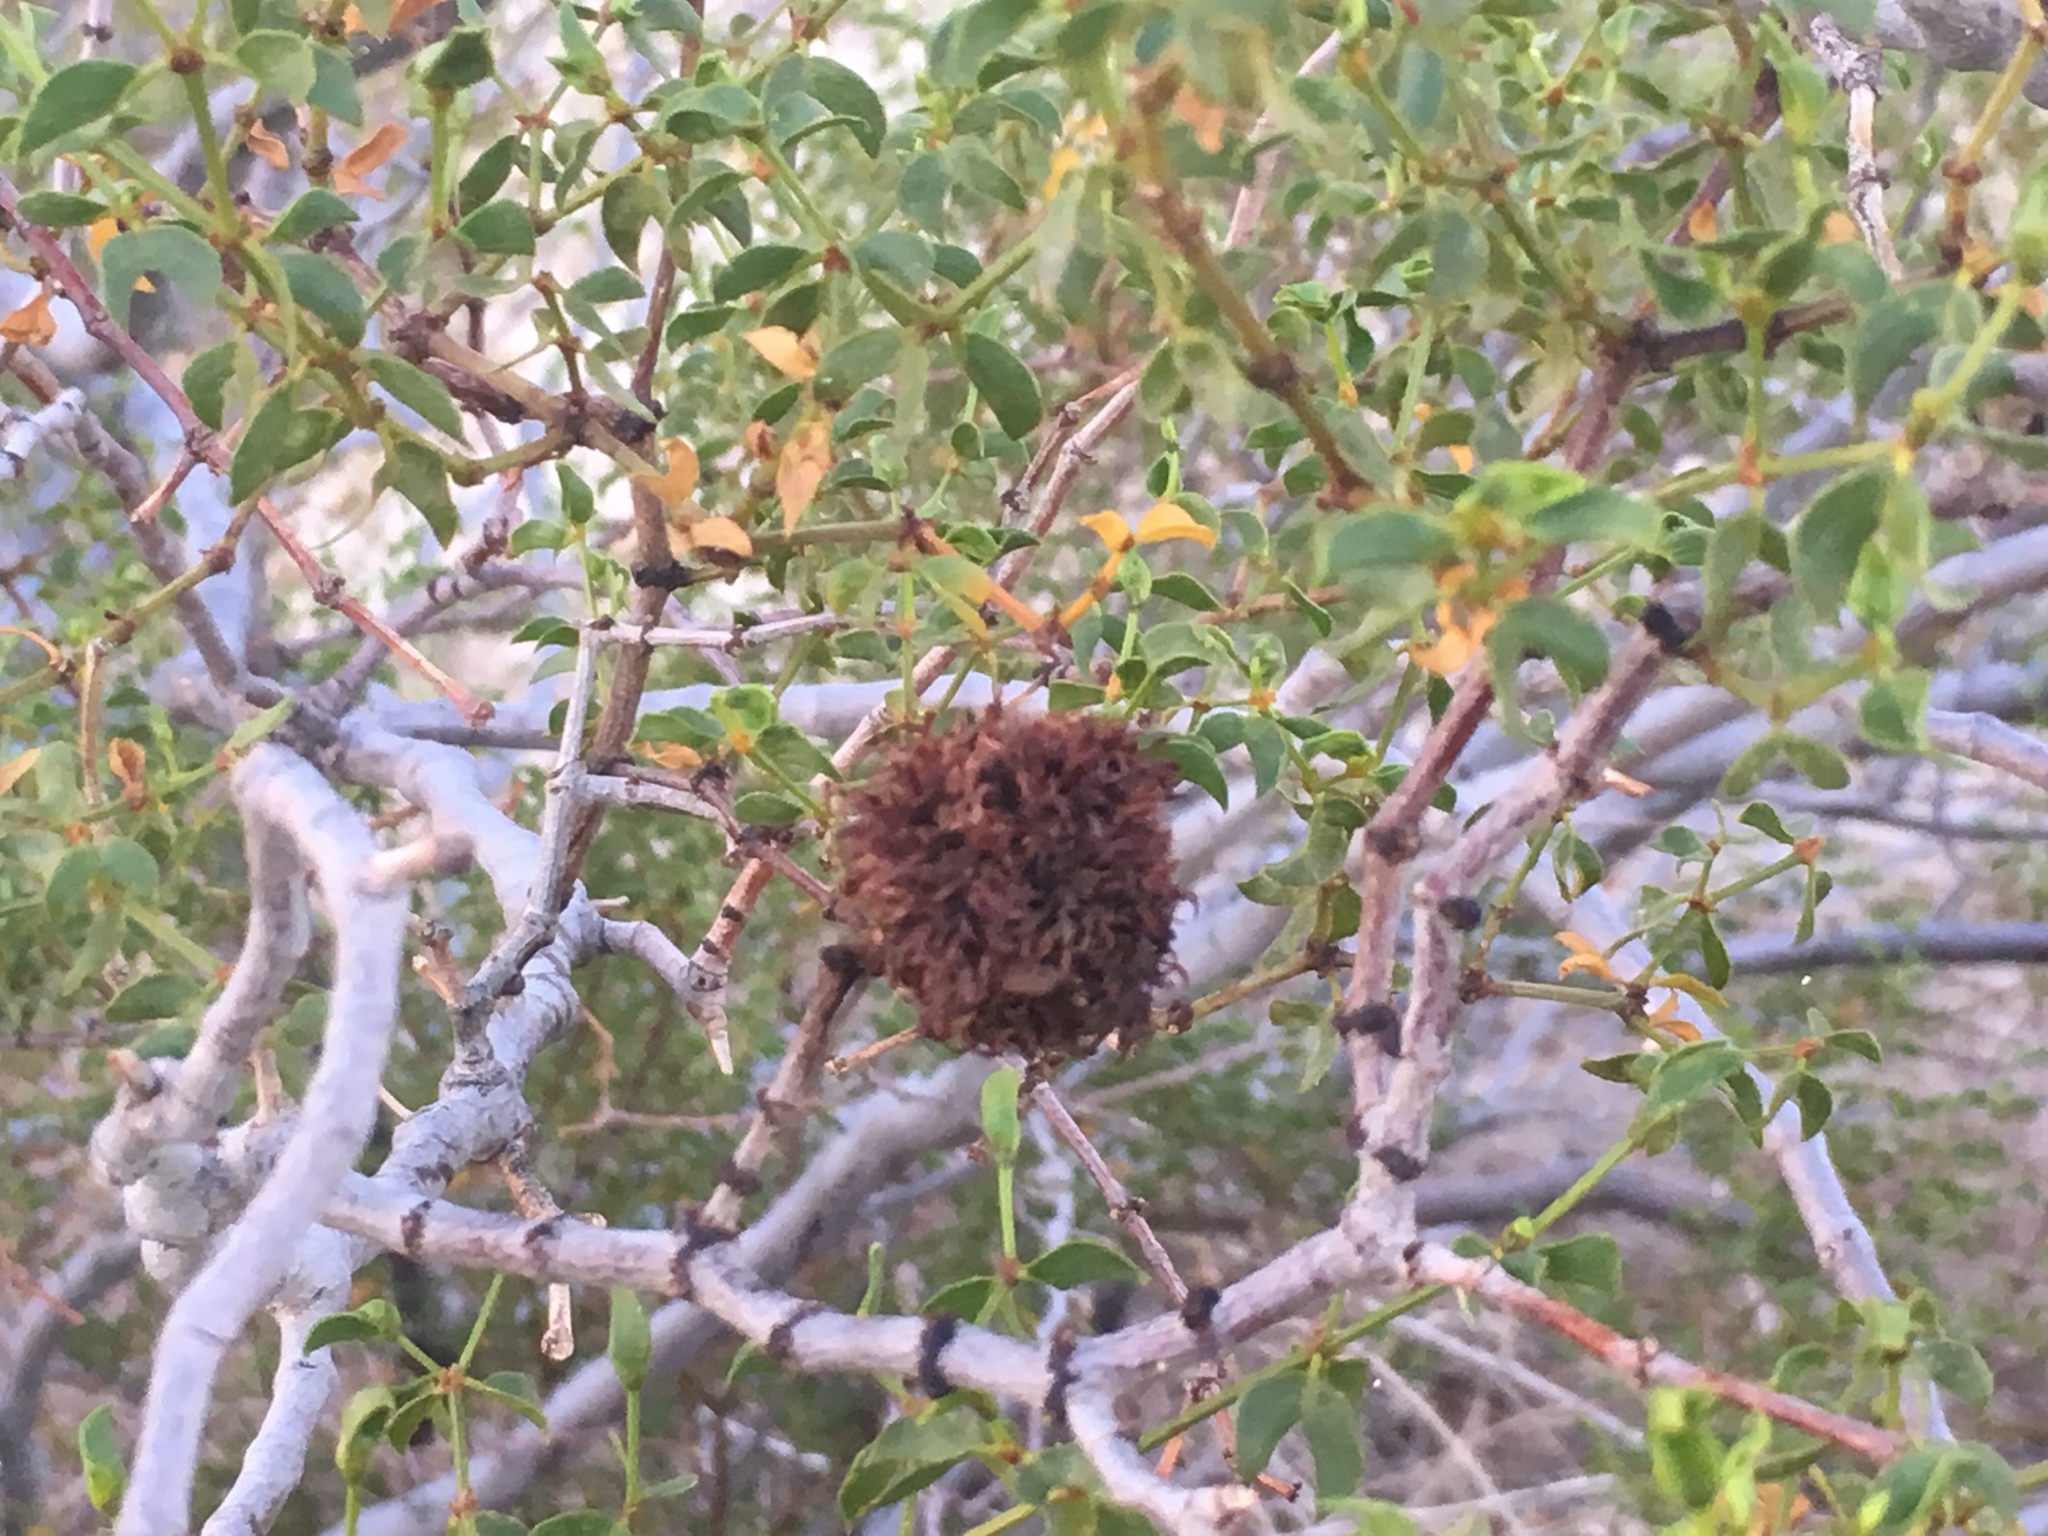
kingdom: Animalia
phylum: Arthropoda
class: Insecta
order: Diptera
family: Cecidomyiidae
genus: Asphondylia
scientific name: Asphondylia auripila
